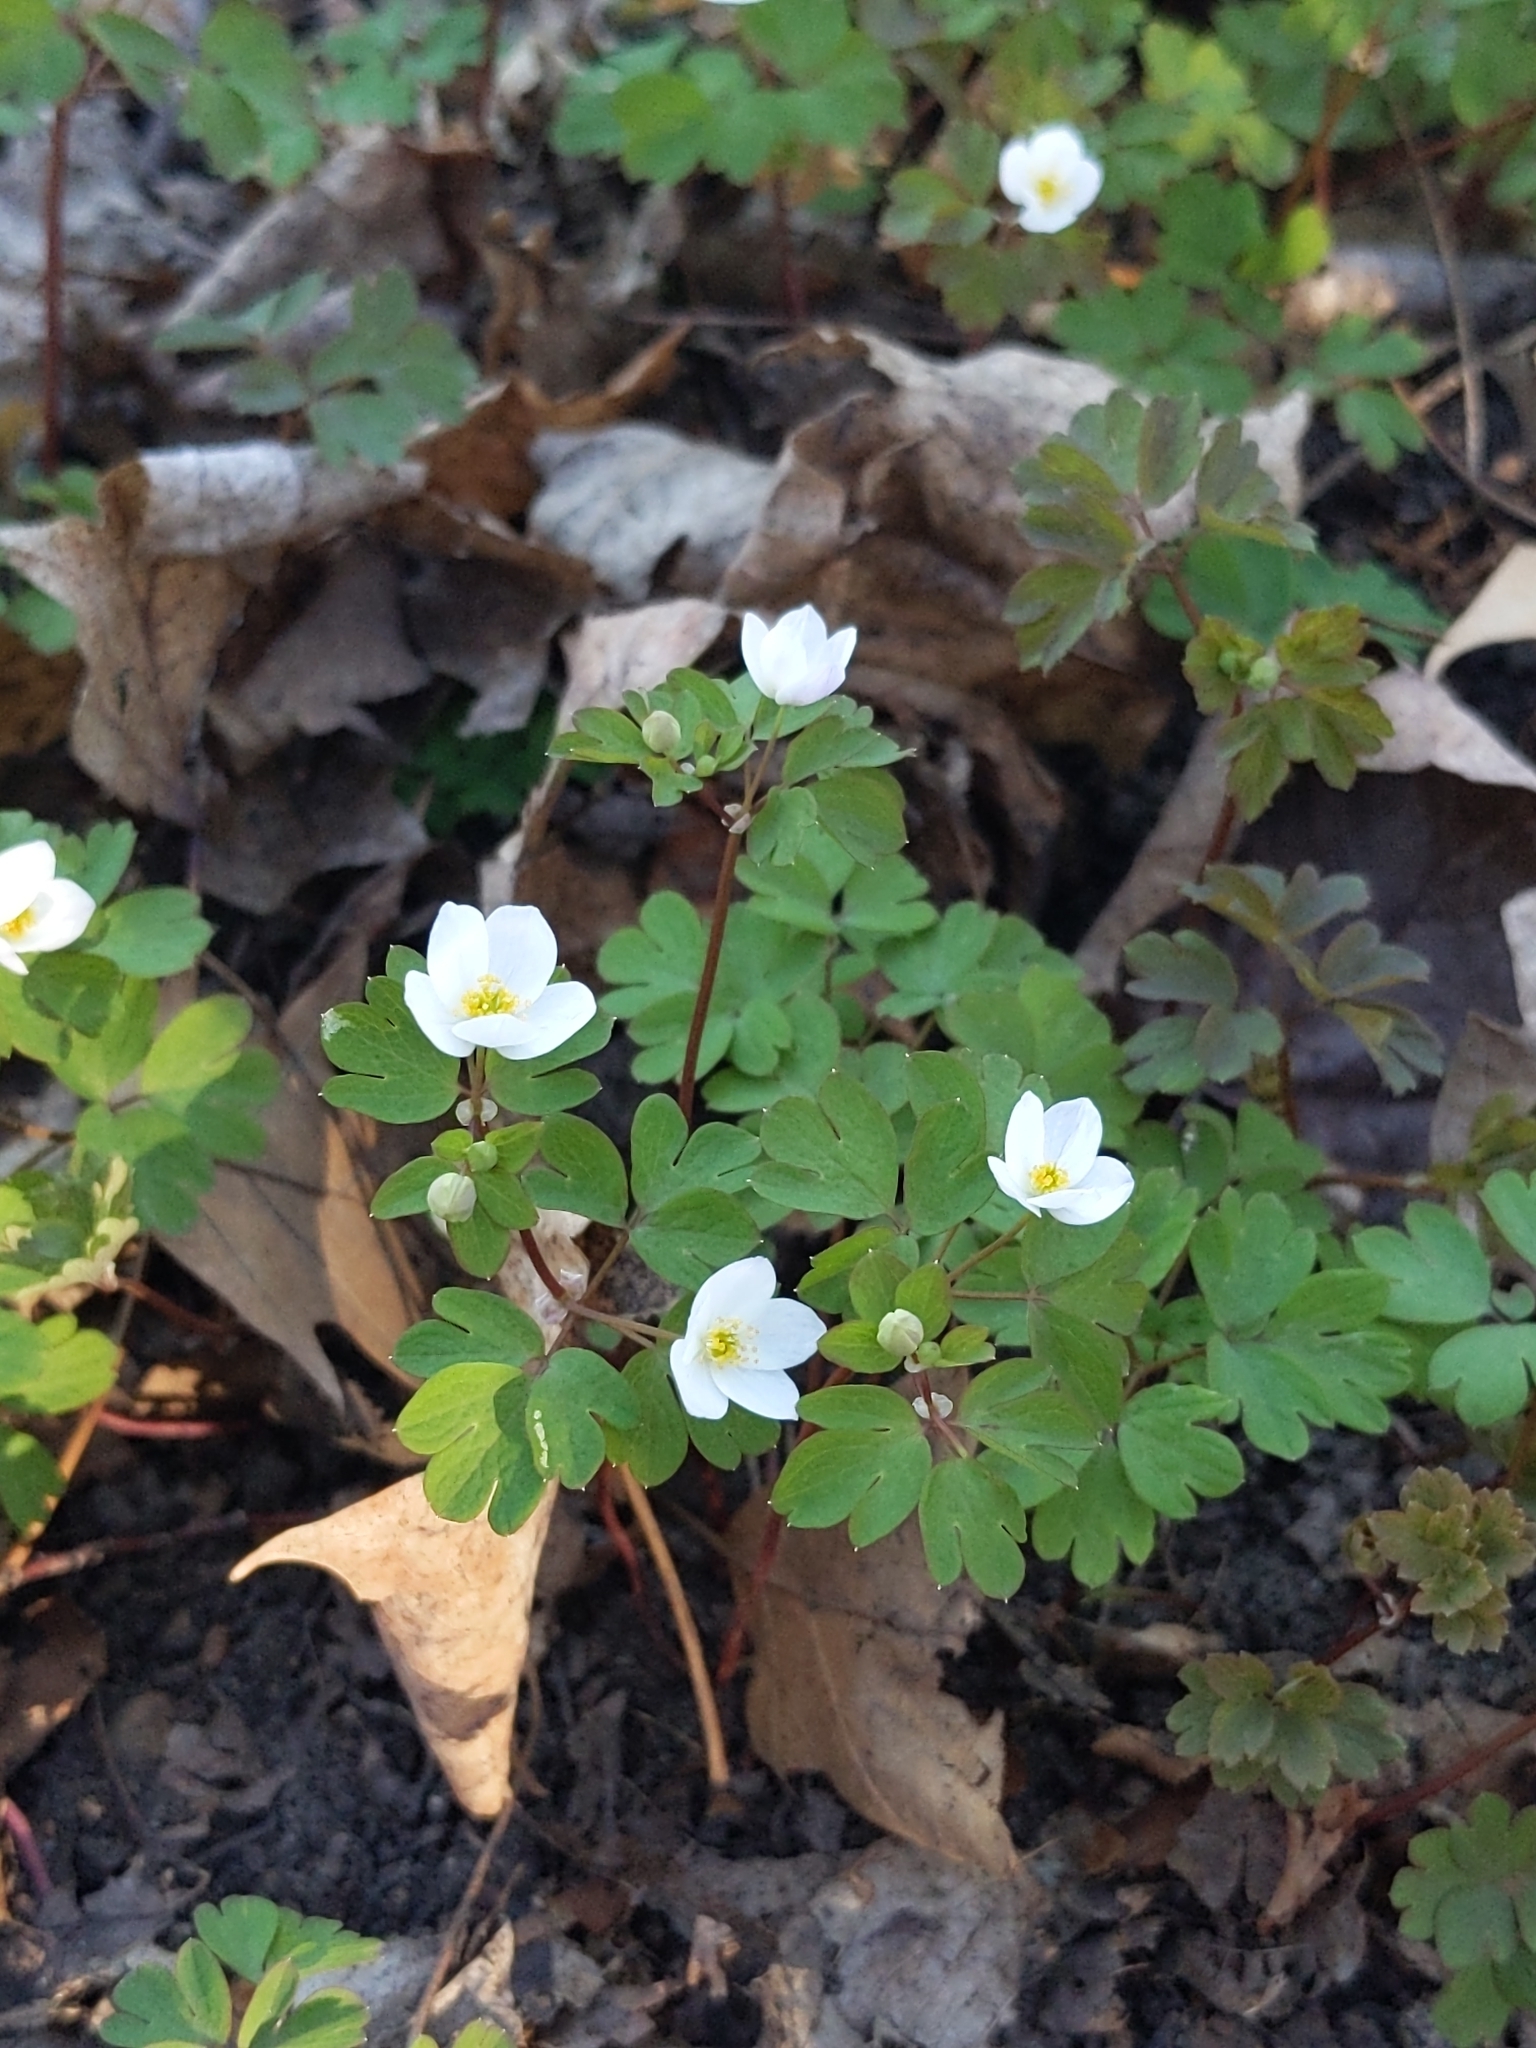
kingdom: Plantae
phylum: Tracheophyta
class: Magnoliopsida
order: Ranunculales
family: Ranunculaceae
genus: Enemion
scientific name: Enemion biternatum
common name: Eastern false rue-anemone
